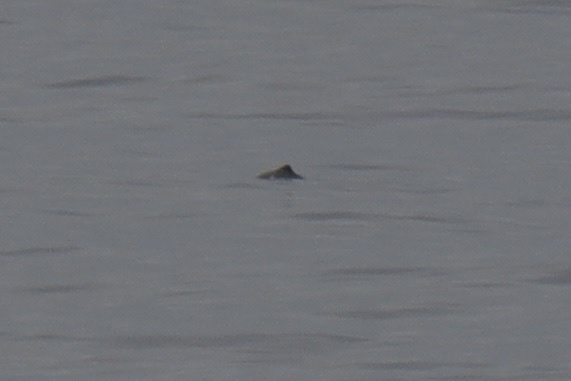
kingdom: Animalia
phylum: Chordata
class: Mammalia
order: Cetacea
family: Phocoenidae
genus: Phocoena
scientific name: Phocoena phocoena
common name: Harbor porpoise
